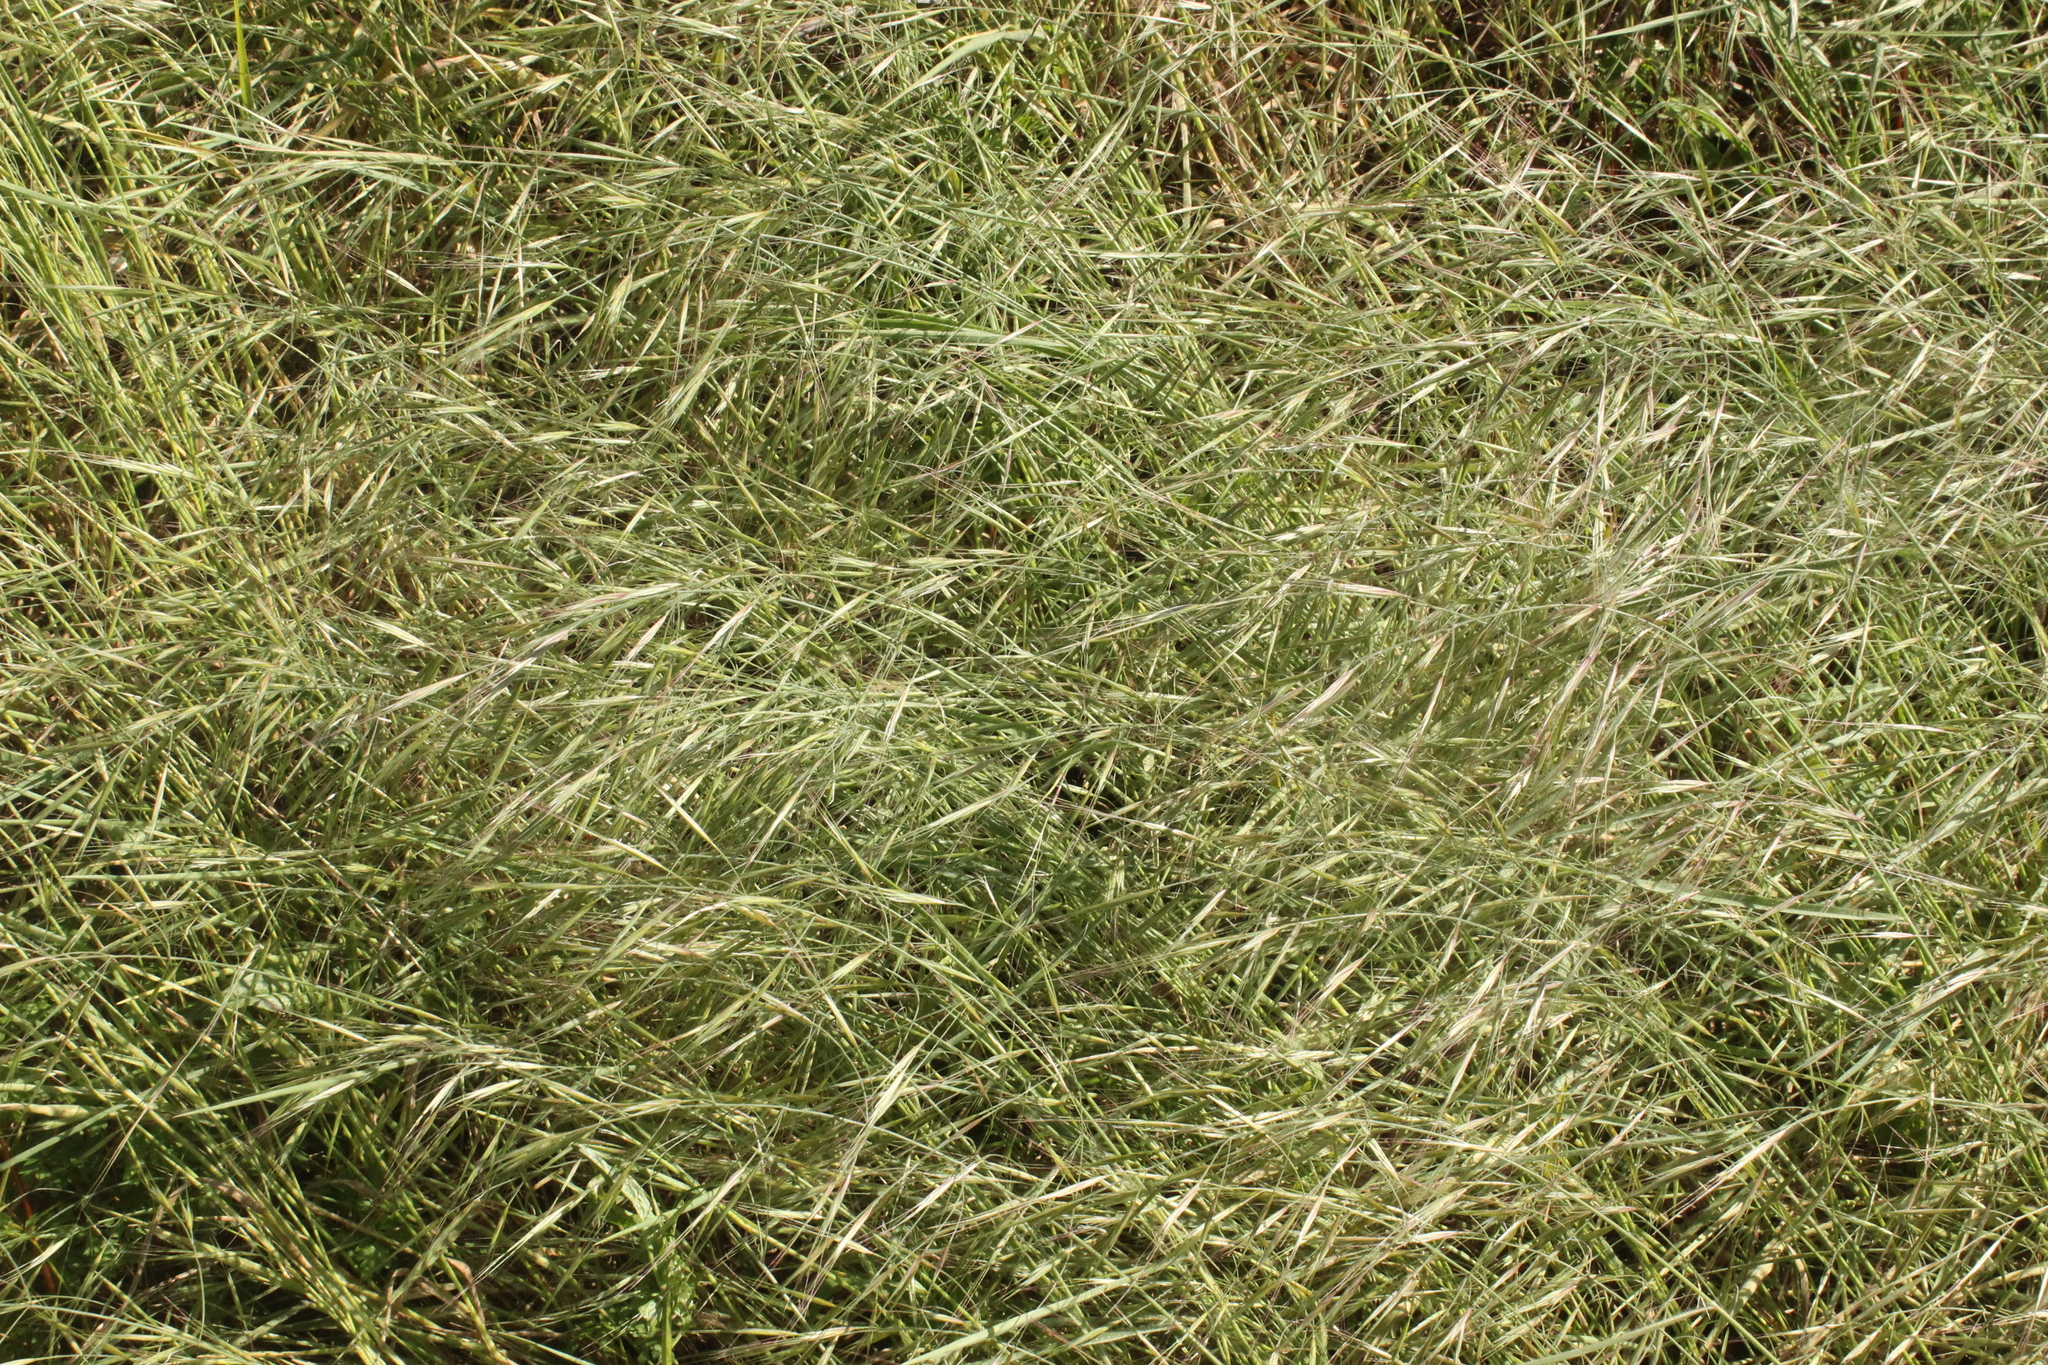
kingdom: Plantae
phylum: Tracheophyta
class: Liliopsida
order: Poales
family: Poaceae
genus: Microlaena
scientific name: Microlaena stipoides
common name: Meadow ricegrass
